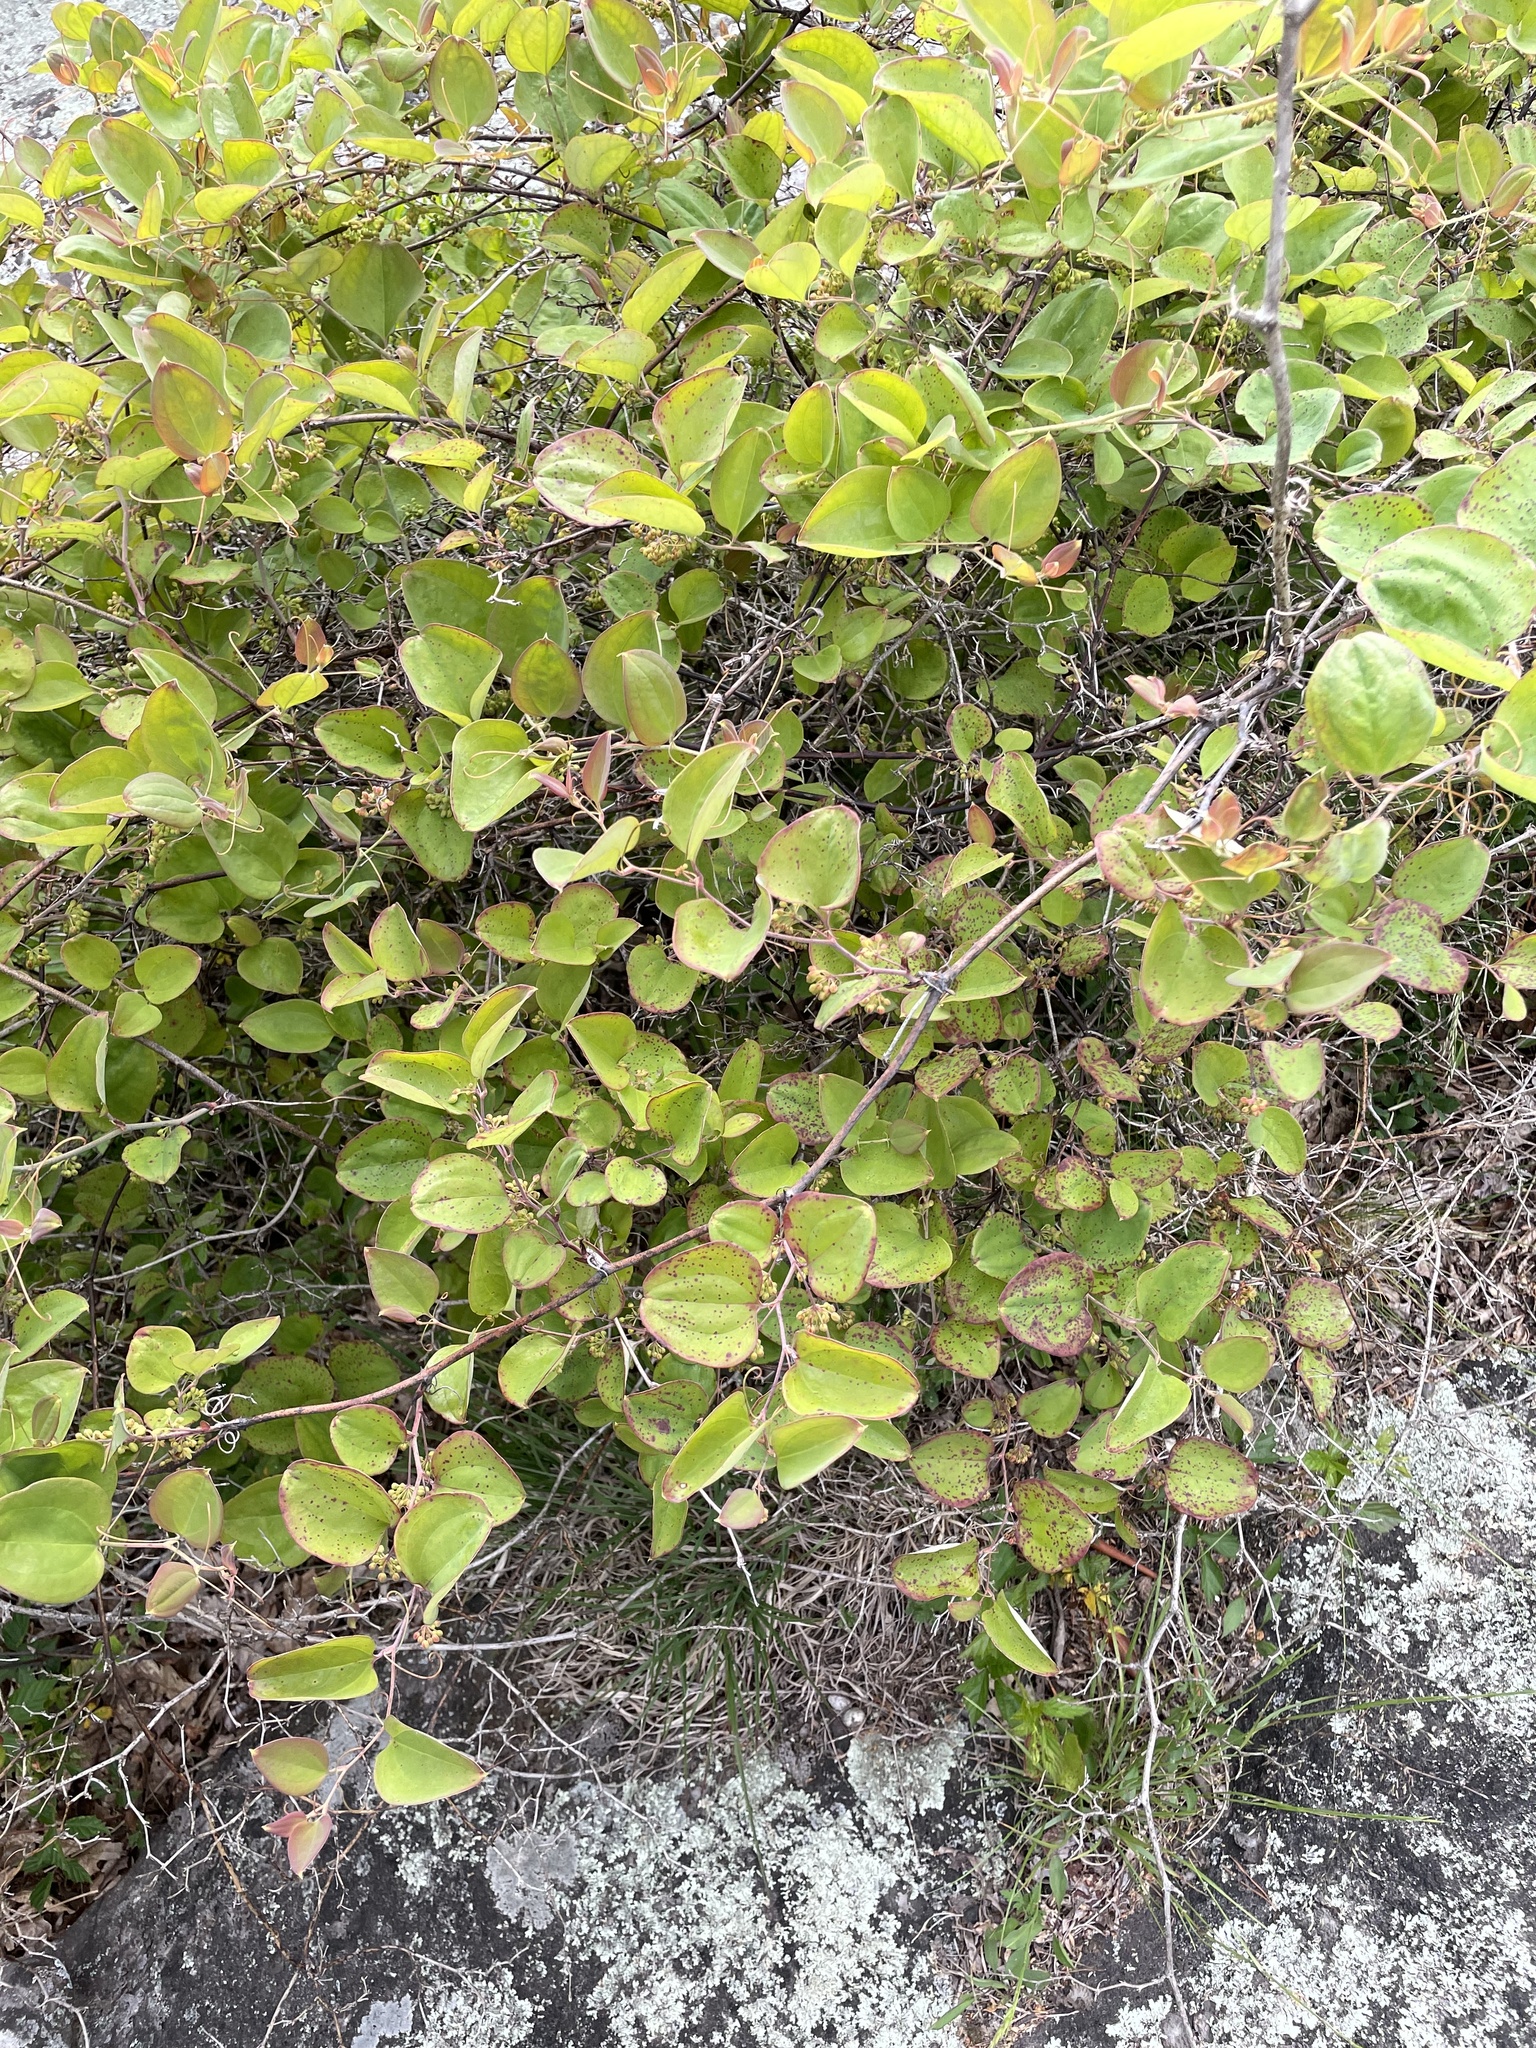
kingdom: Plantae
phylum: Tracheophyta
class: Liliopsida
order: Liliales
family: Smilacaceae
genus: Smilax
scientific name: Smilax glauca
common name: Cat greenbrier
